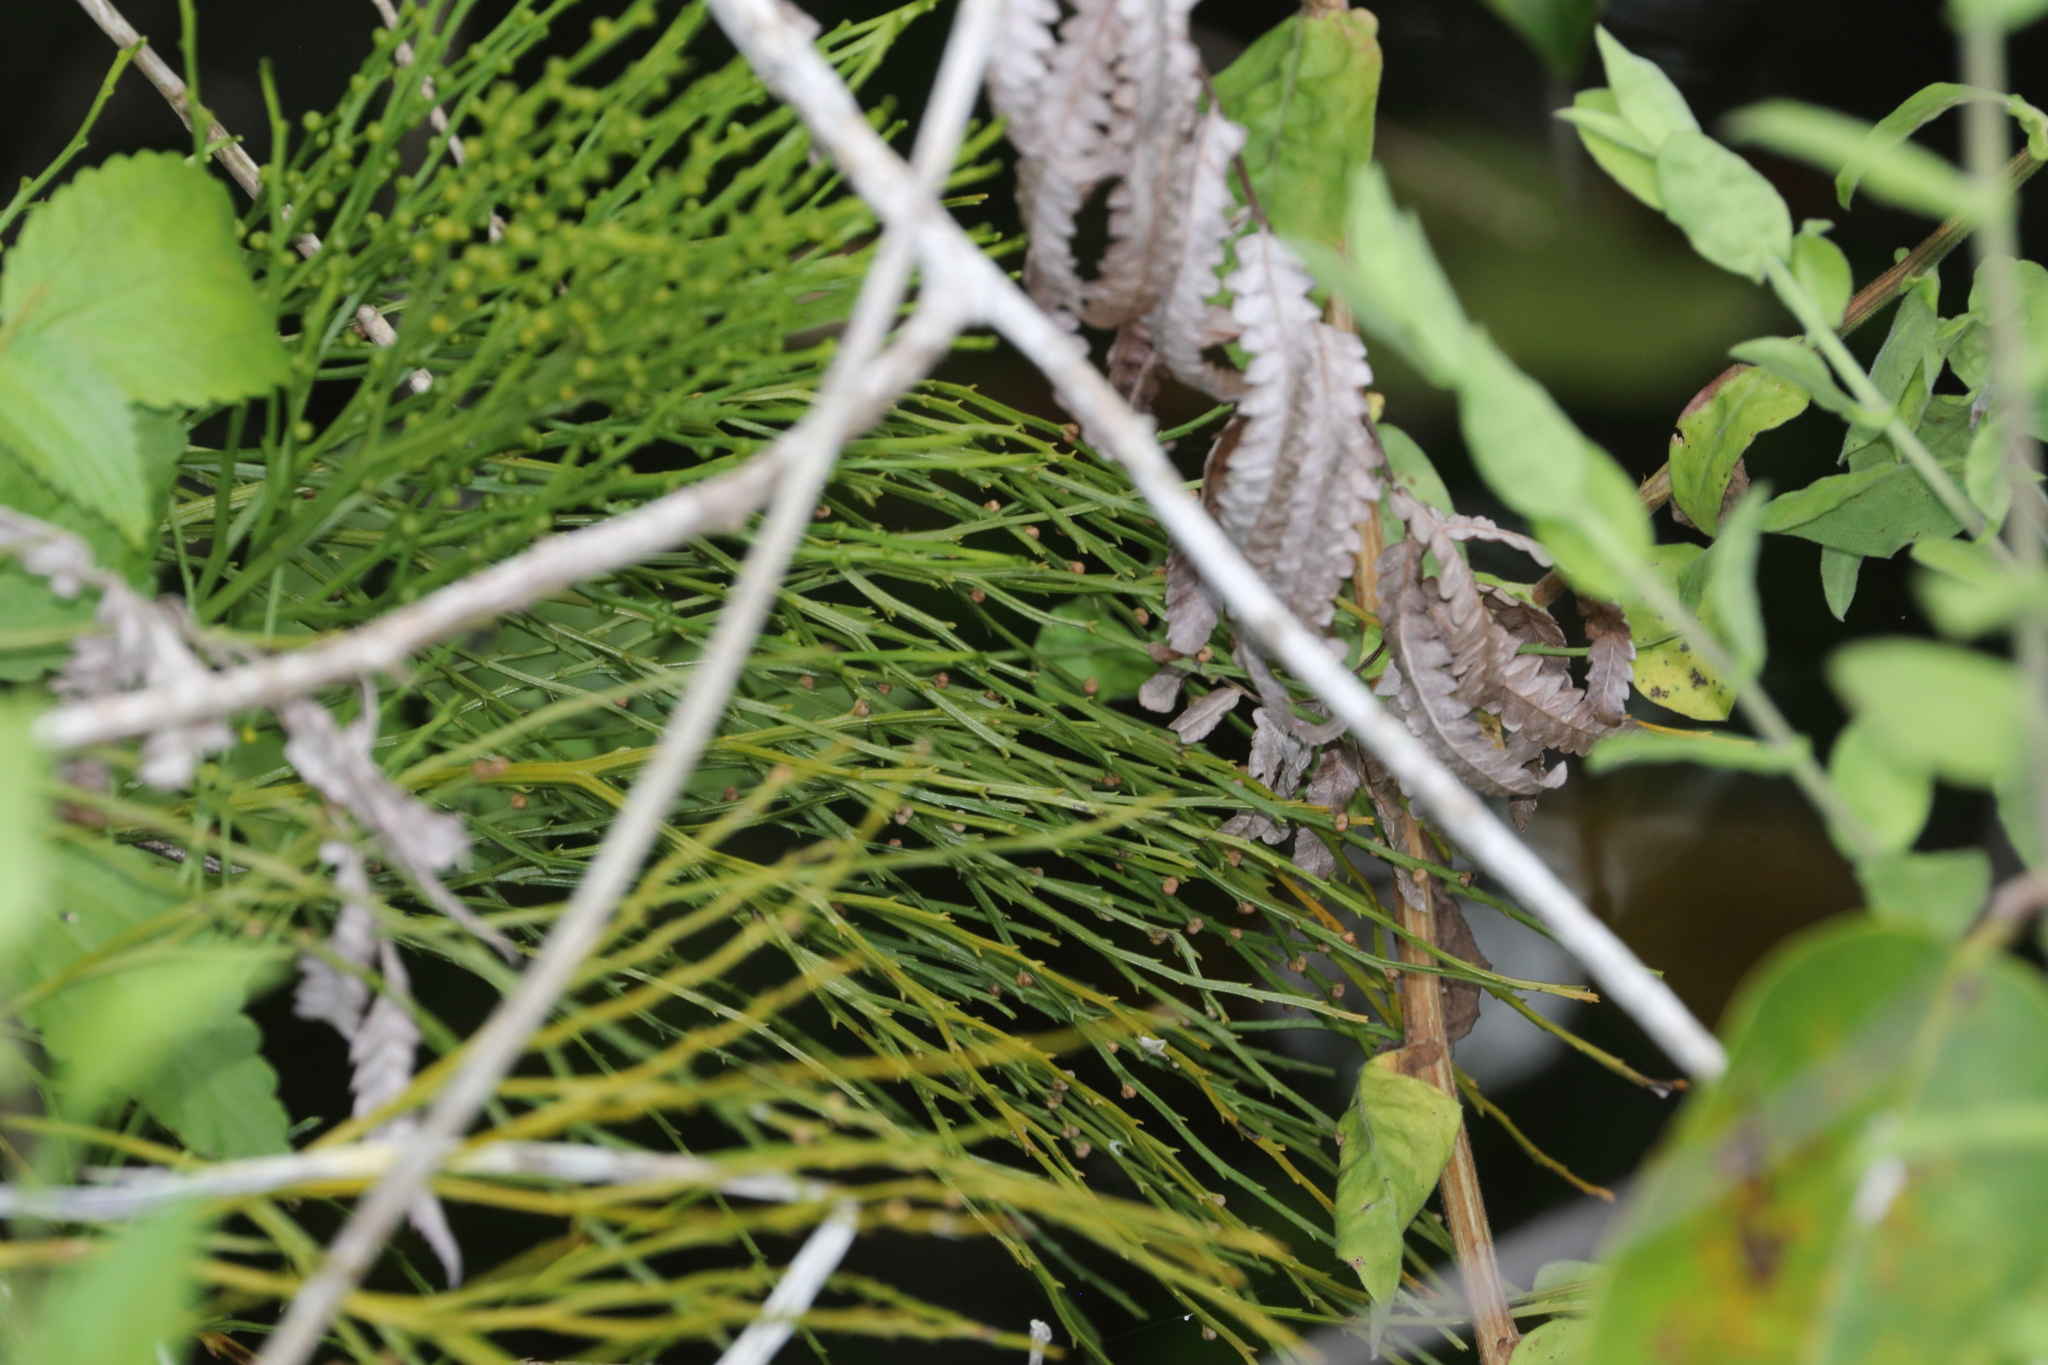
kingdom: Plantae
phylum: Tracheophyta
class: Polypodiopsida
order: Psilotales
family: Psilotaceae
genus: Psilotum
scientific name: Psilotum nudum
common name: Skeleton fork fern
